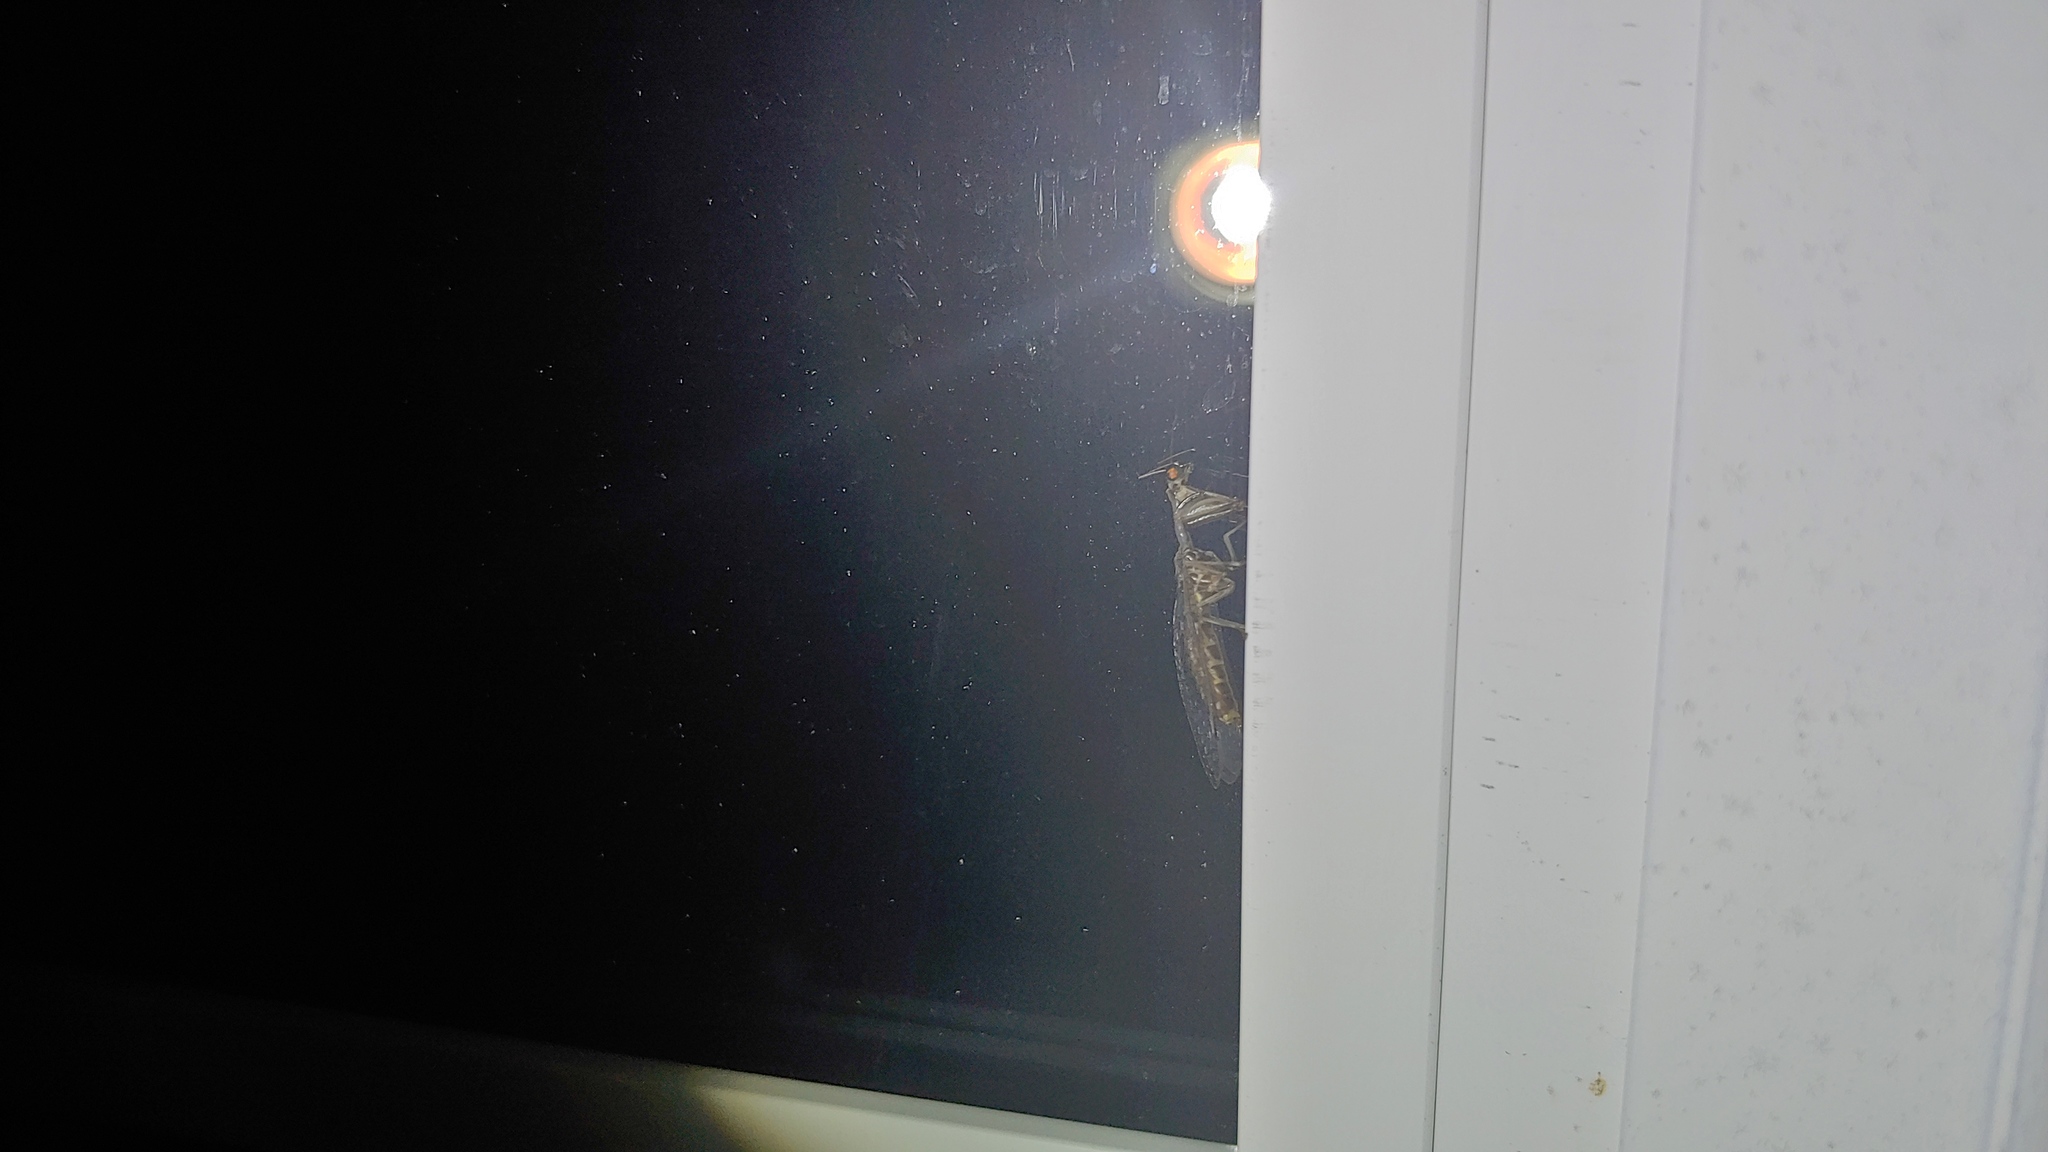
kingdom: Animalia
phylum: Arthropoda
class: Insecta
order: Neuroptera
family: Mantispidae
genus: Dicromantispa
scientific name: Dicromantispa sayi
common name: Say's mantidfly
